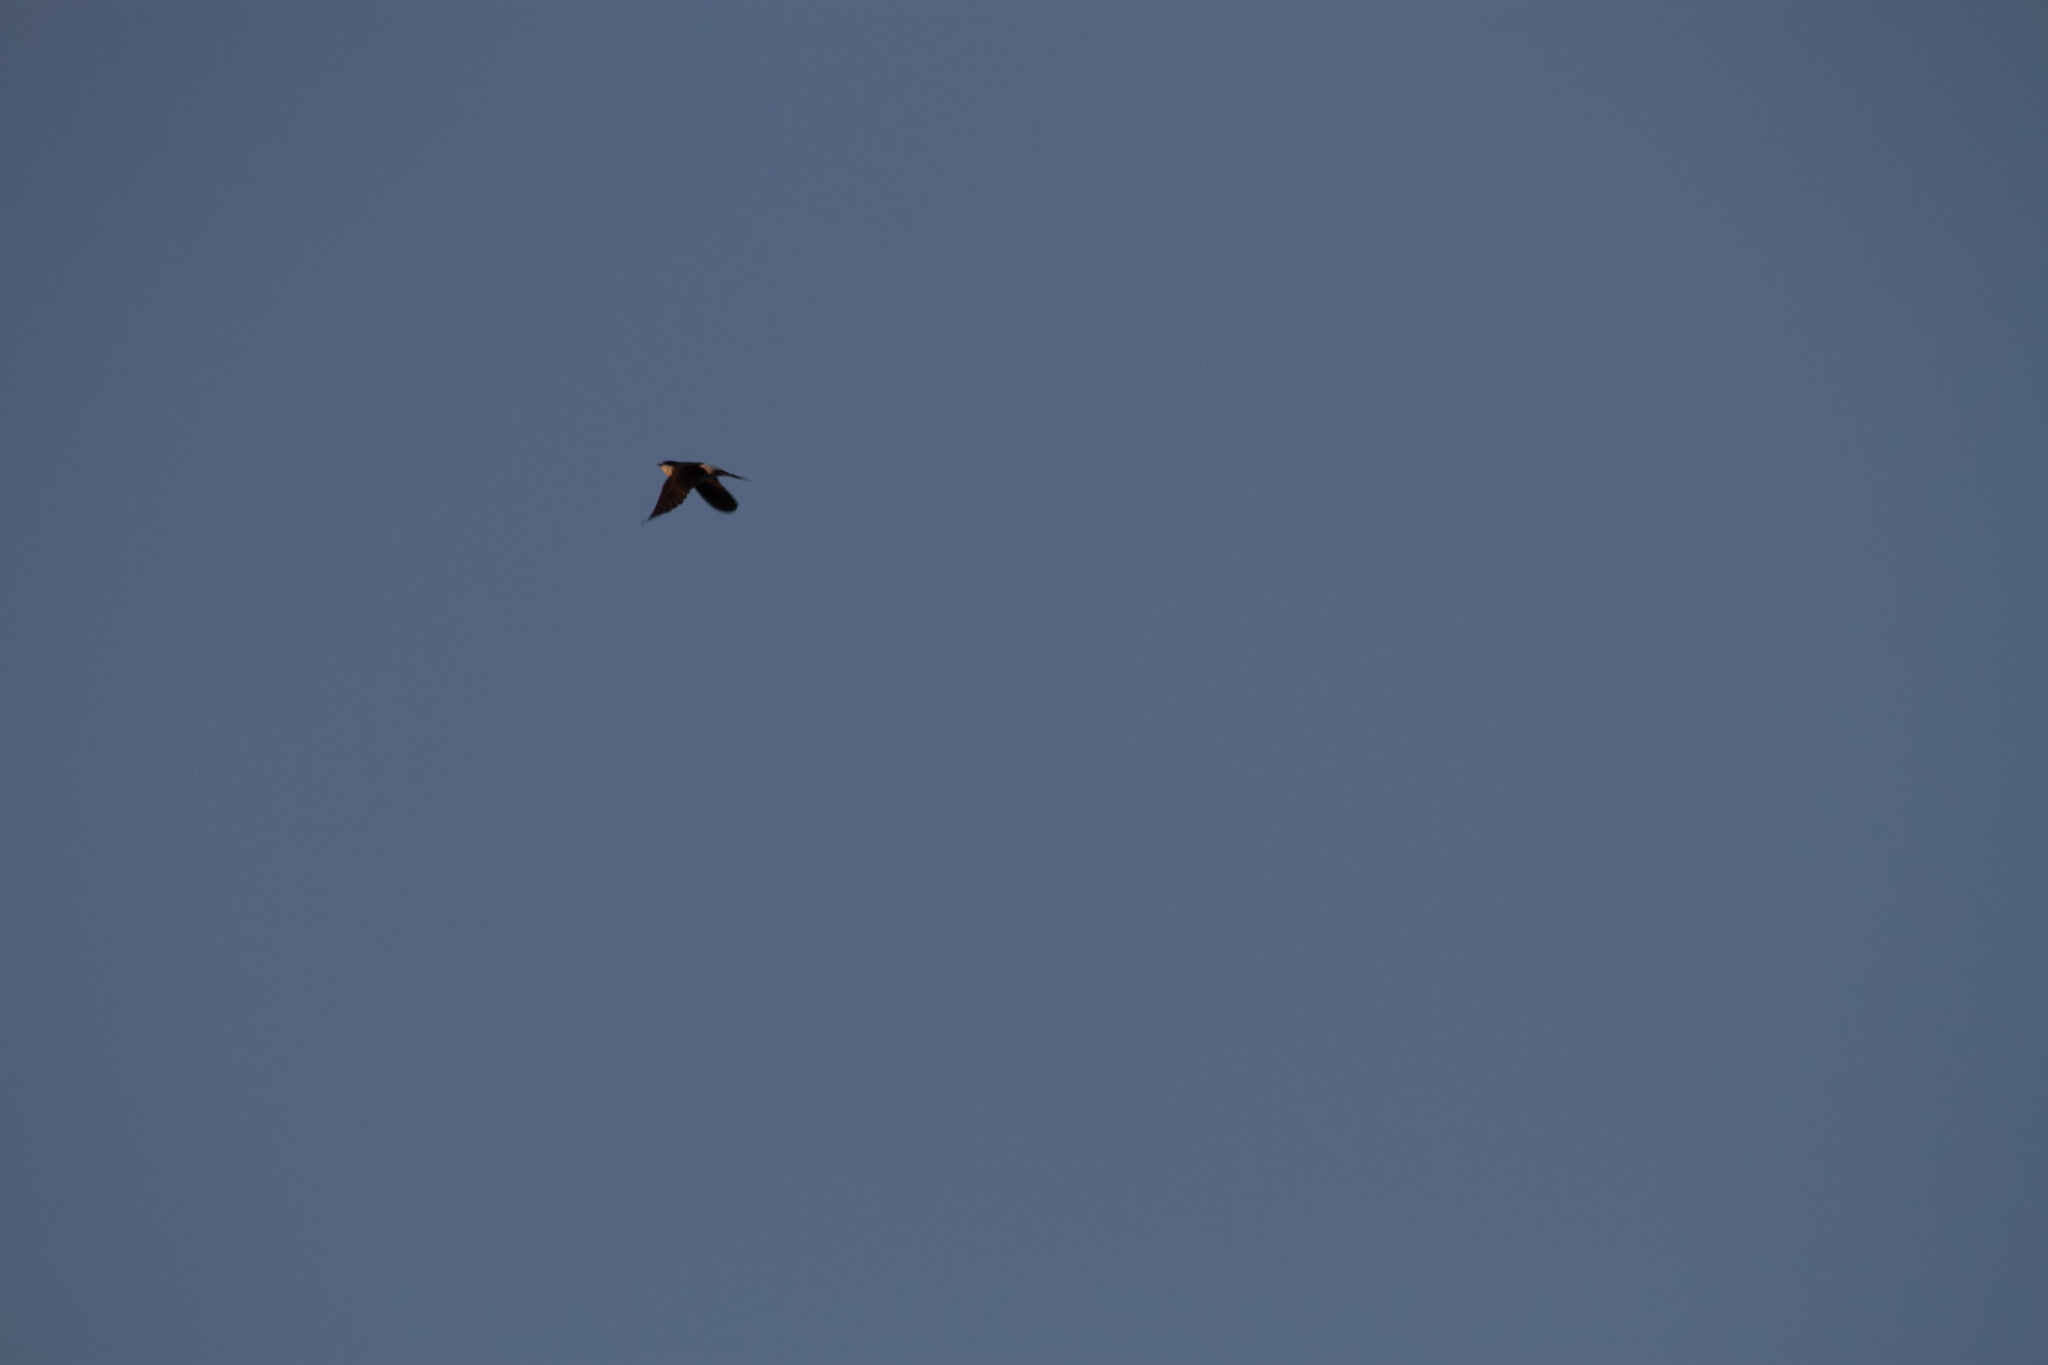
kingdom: Animalia
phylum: Chordata
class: Aves
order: Passeriformes
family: Hirundinidae
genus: Delichon
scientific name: Delichon urbicum
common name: Common house martin
